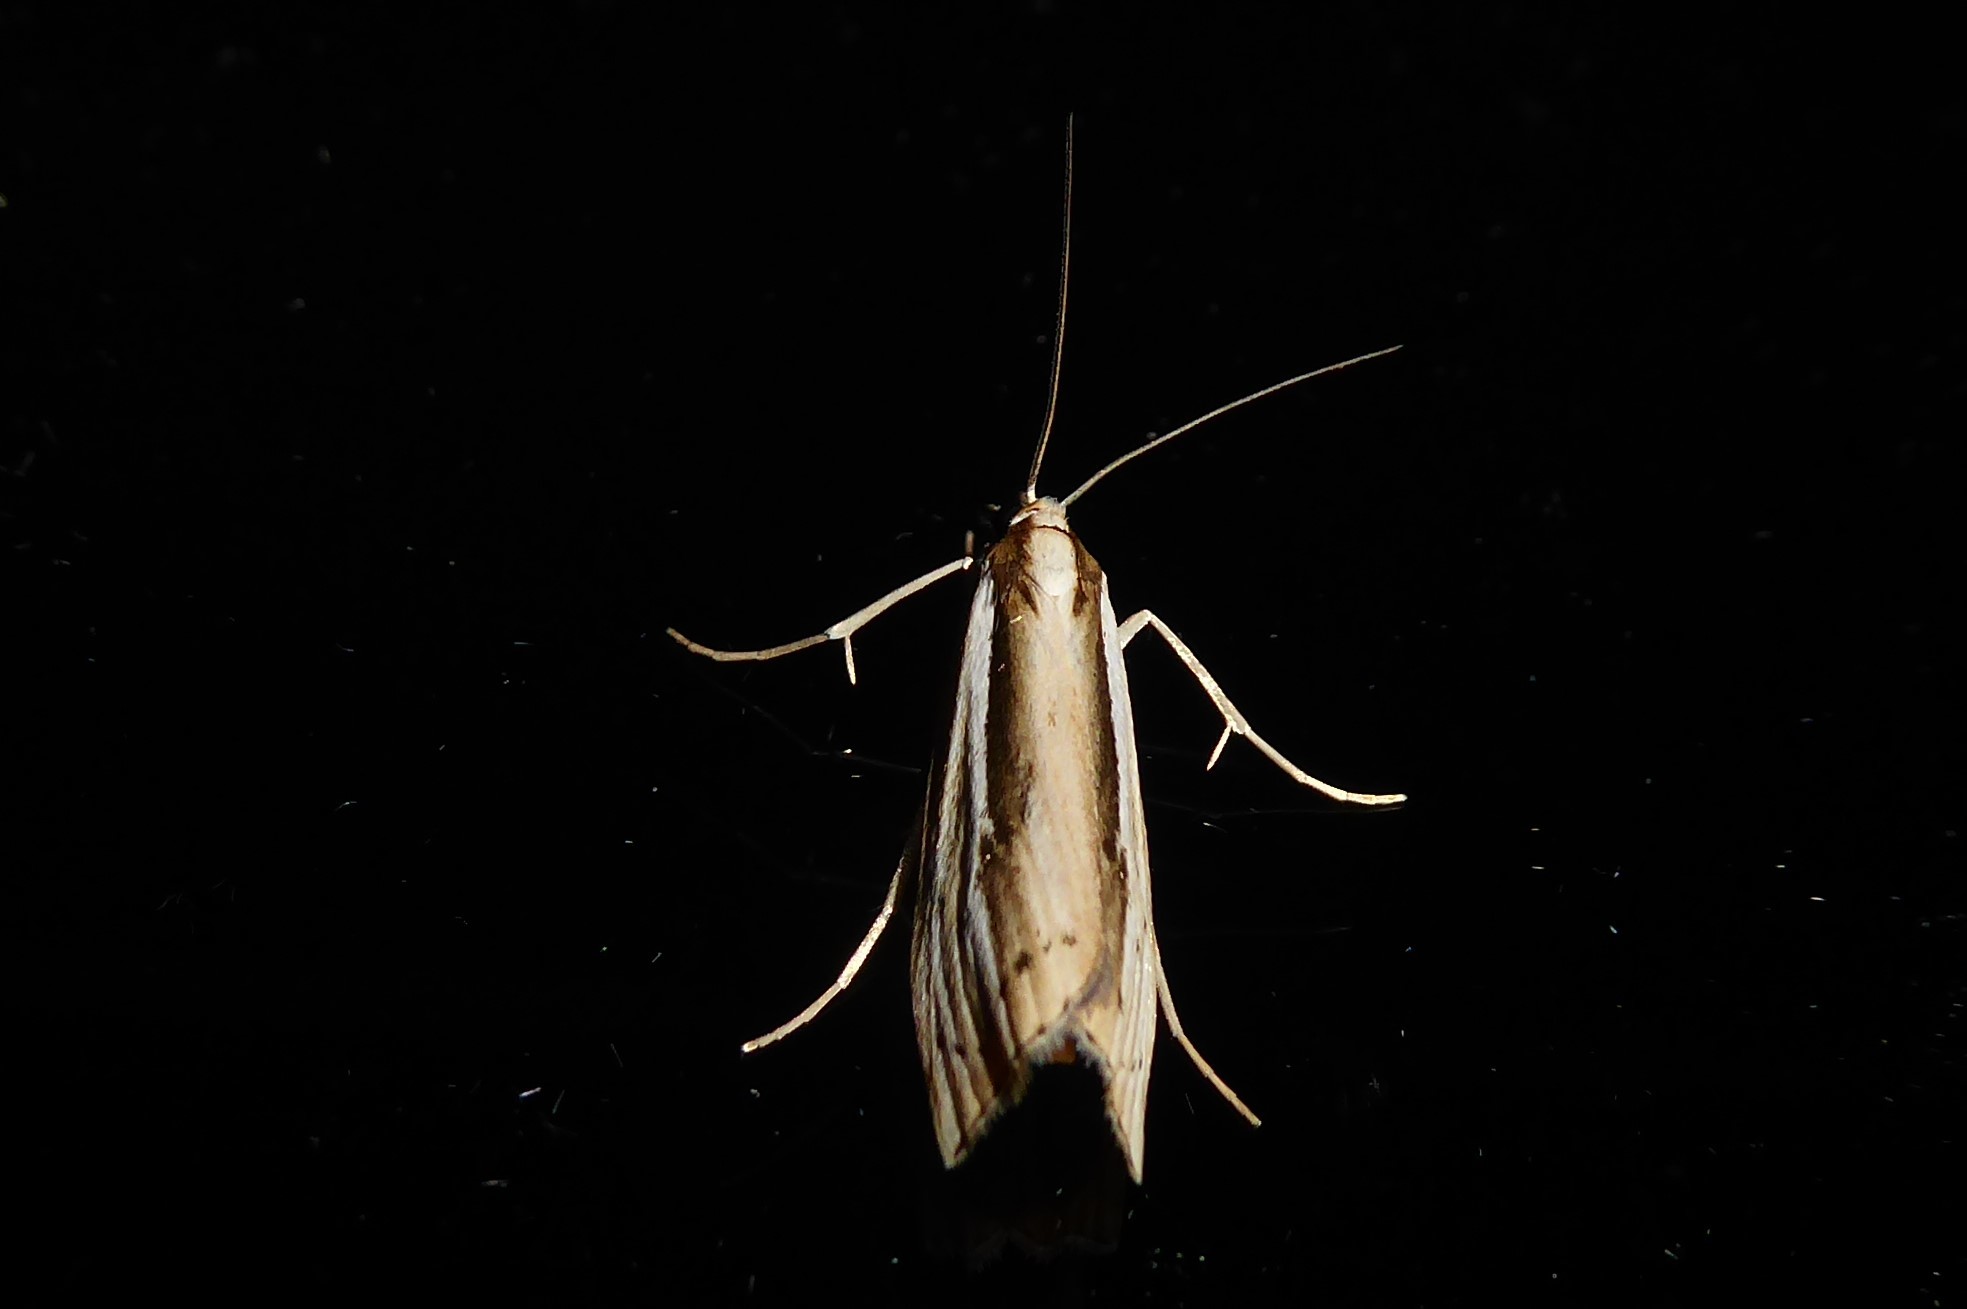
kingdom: Animalia
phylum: Arthropoda
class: Insecta
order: Lepidoptera
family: Crambidae
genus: Orocrambus
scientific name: Orocrambus ramosellus
